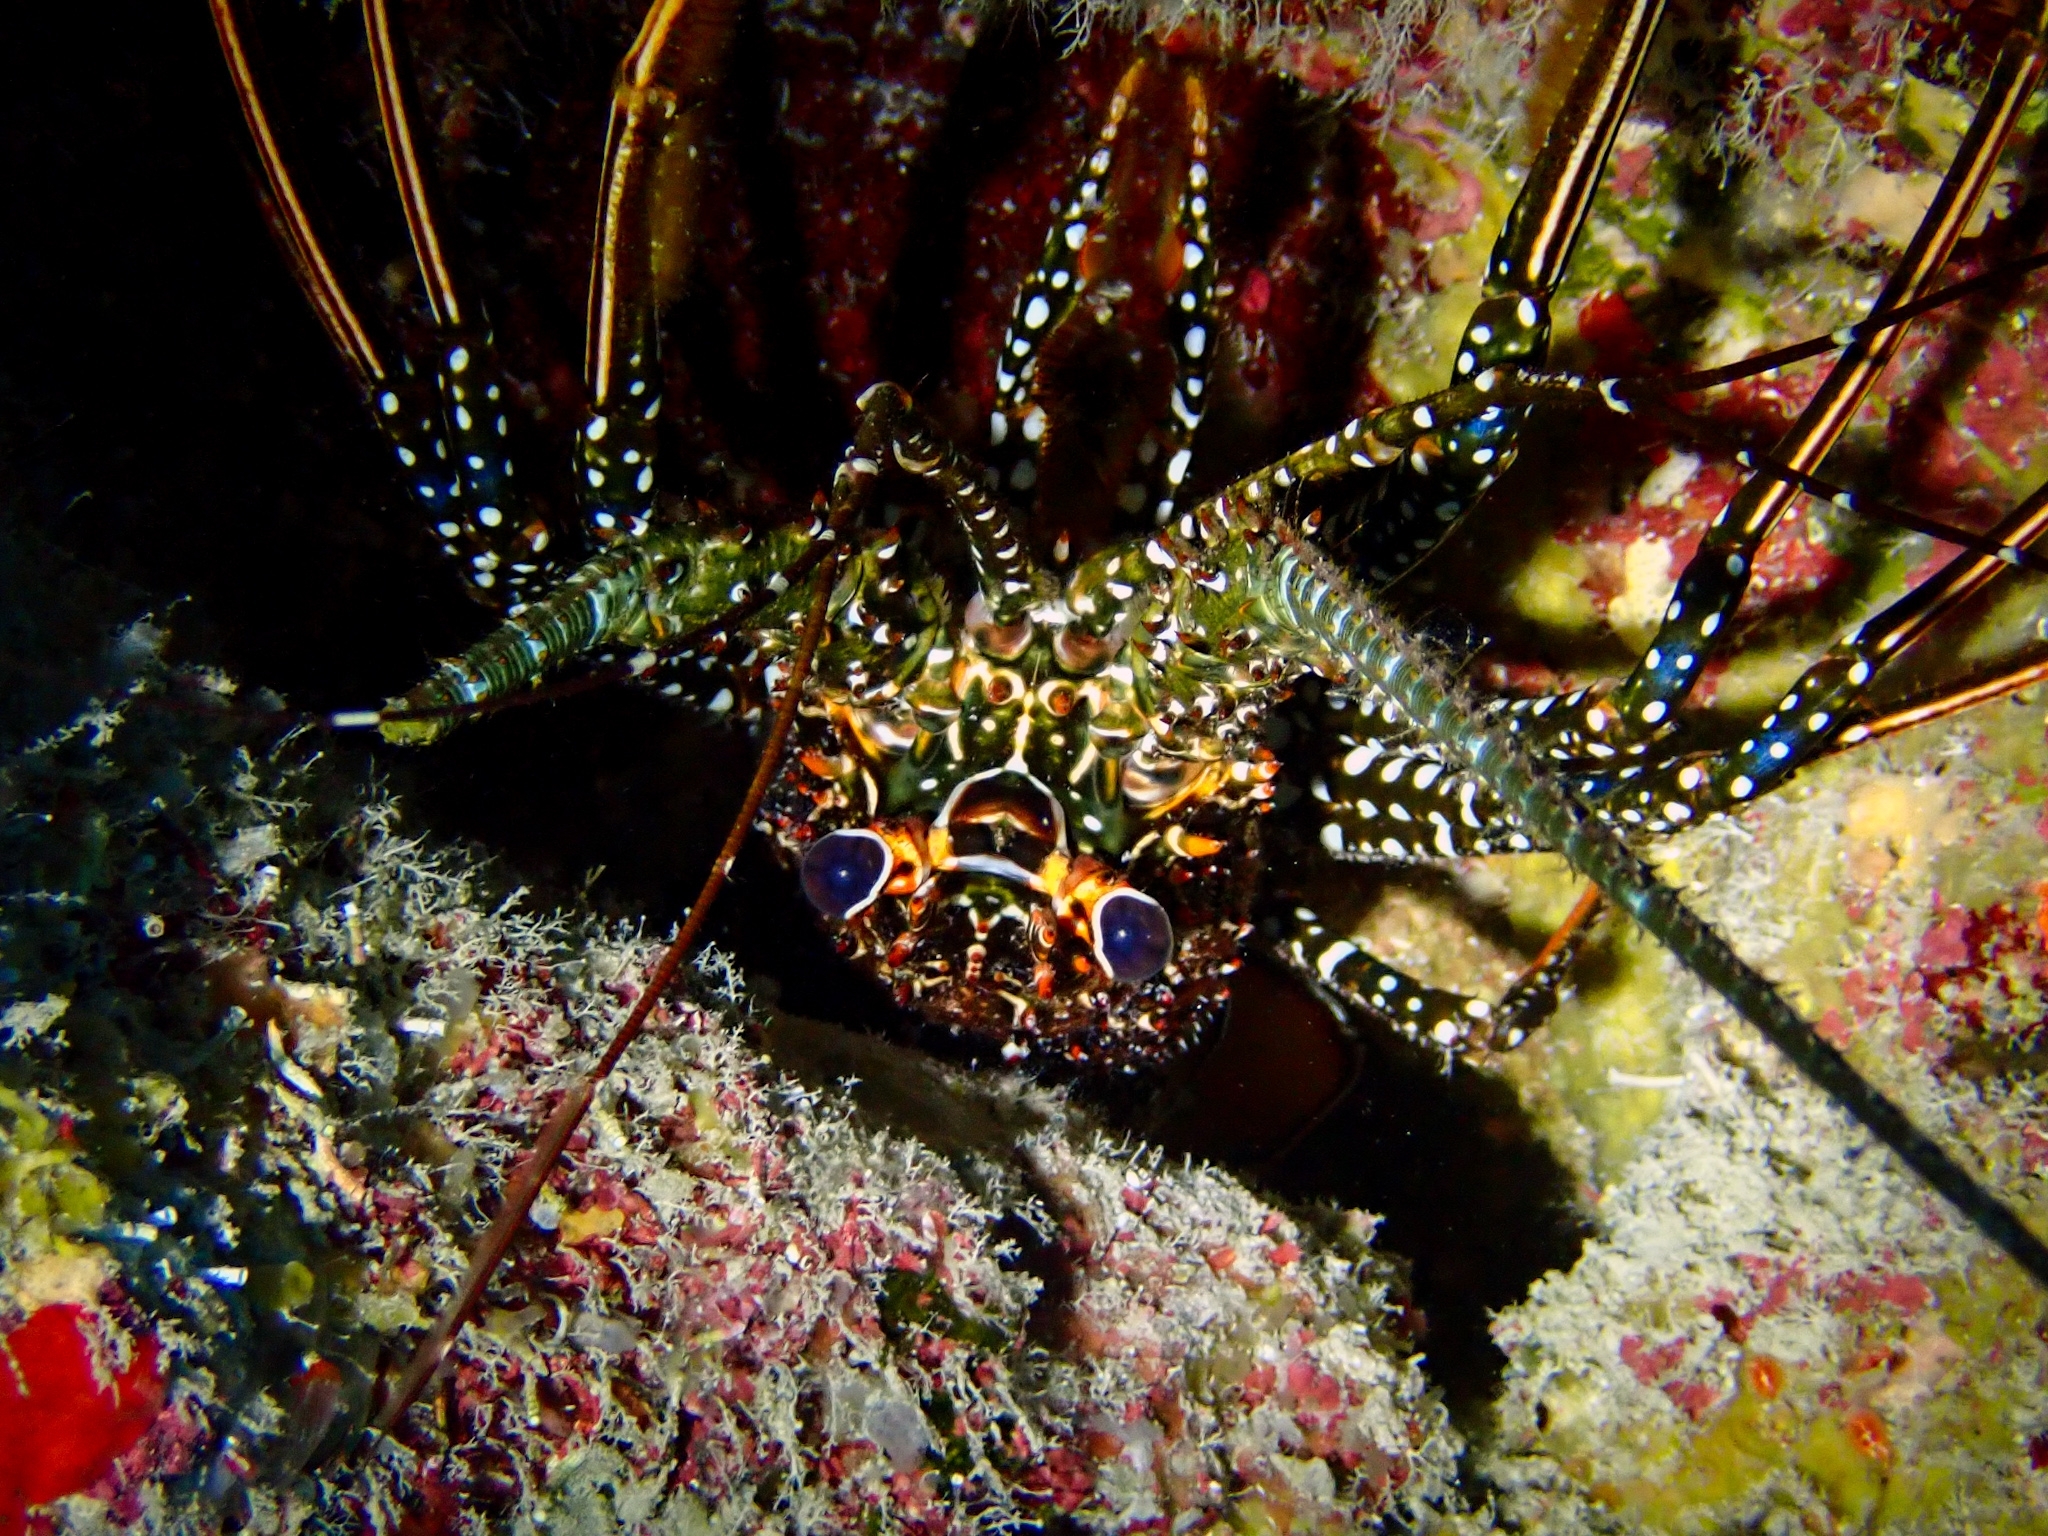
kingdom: Animalia
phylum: Arthropoda
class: Malacostraca
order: Decapoda
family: Palinuridae
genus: Panulirus
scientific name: Panulirus guttatus
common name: Spotted spiny lobster
